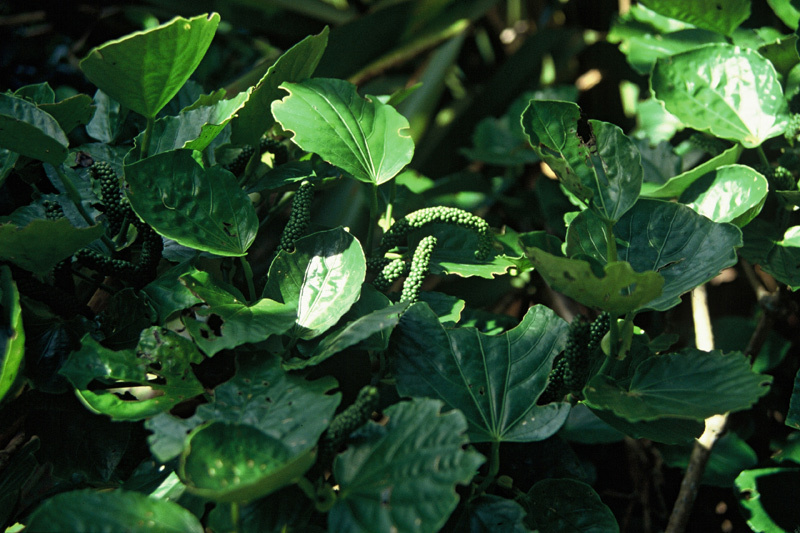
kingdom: Plantae
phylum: Tracheophyta
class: Magnoliopsida
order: Piperales
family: Piperaceae
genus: Macropiper
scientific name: Macropiper melchior
